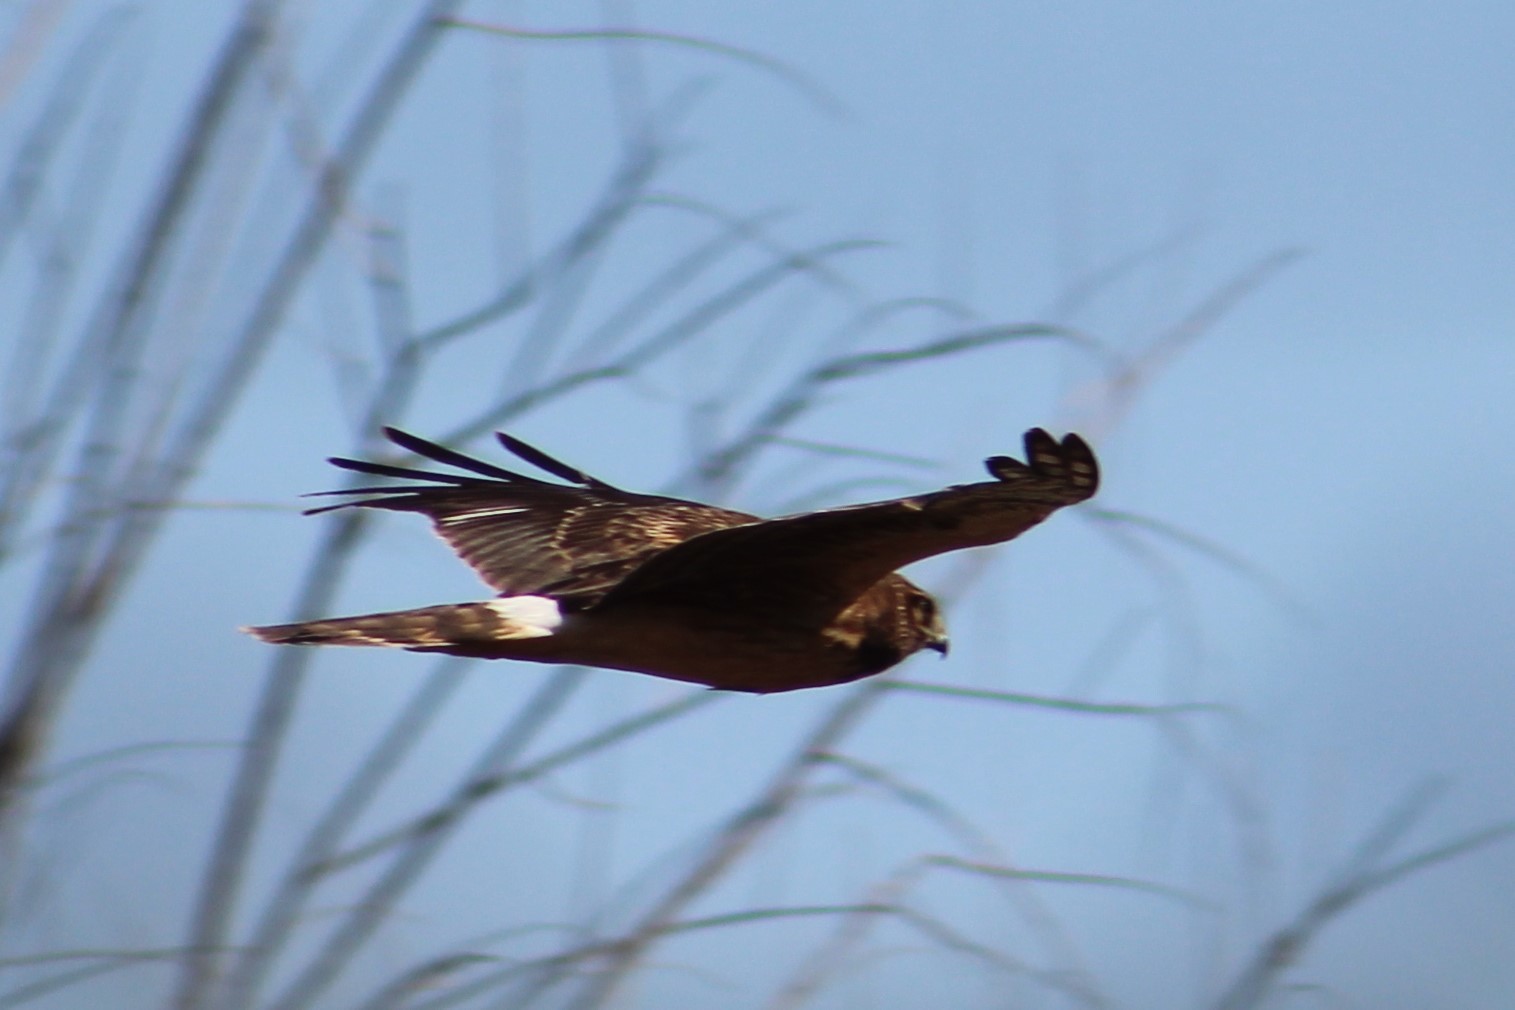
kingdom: Animalia
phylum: Chordata
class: Aves
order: Accipitriformes
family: Accipitridae
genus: Circus
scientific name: Circus cyaneus
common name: Hen harrier
